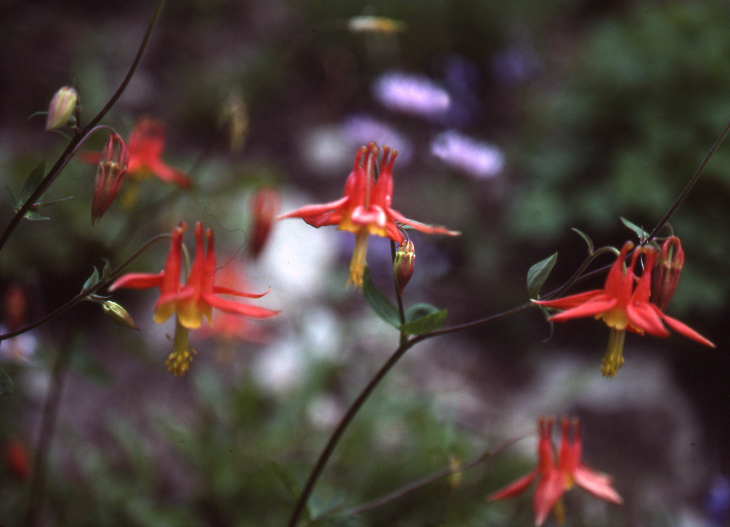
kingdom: Plantae
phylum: Tracheophyta
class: Magnoliopsida
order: Ranunculales
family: Ranunculaceae
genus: Aquilegia
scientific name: Aquilegia formosa
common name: Sitka columbine
